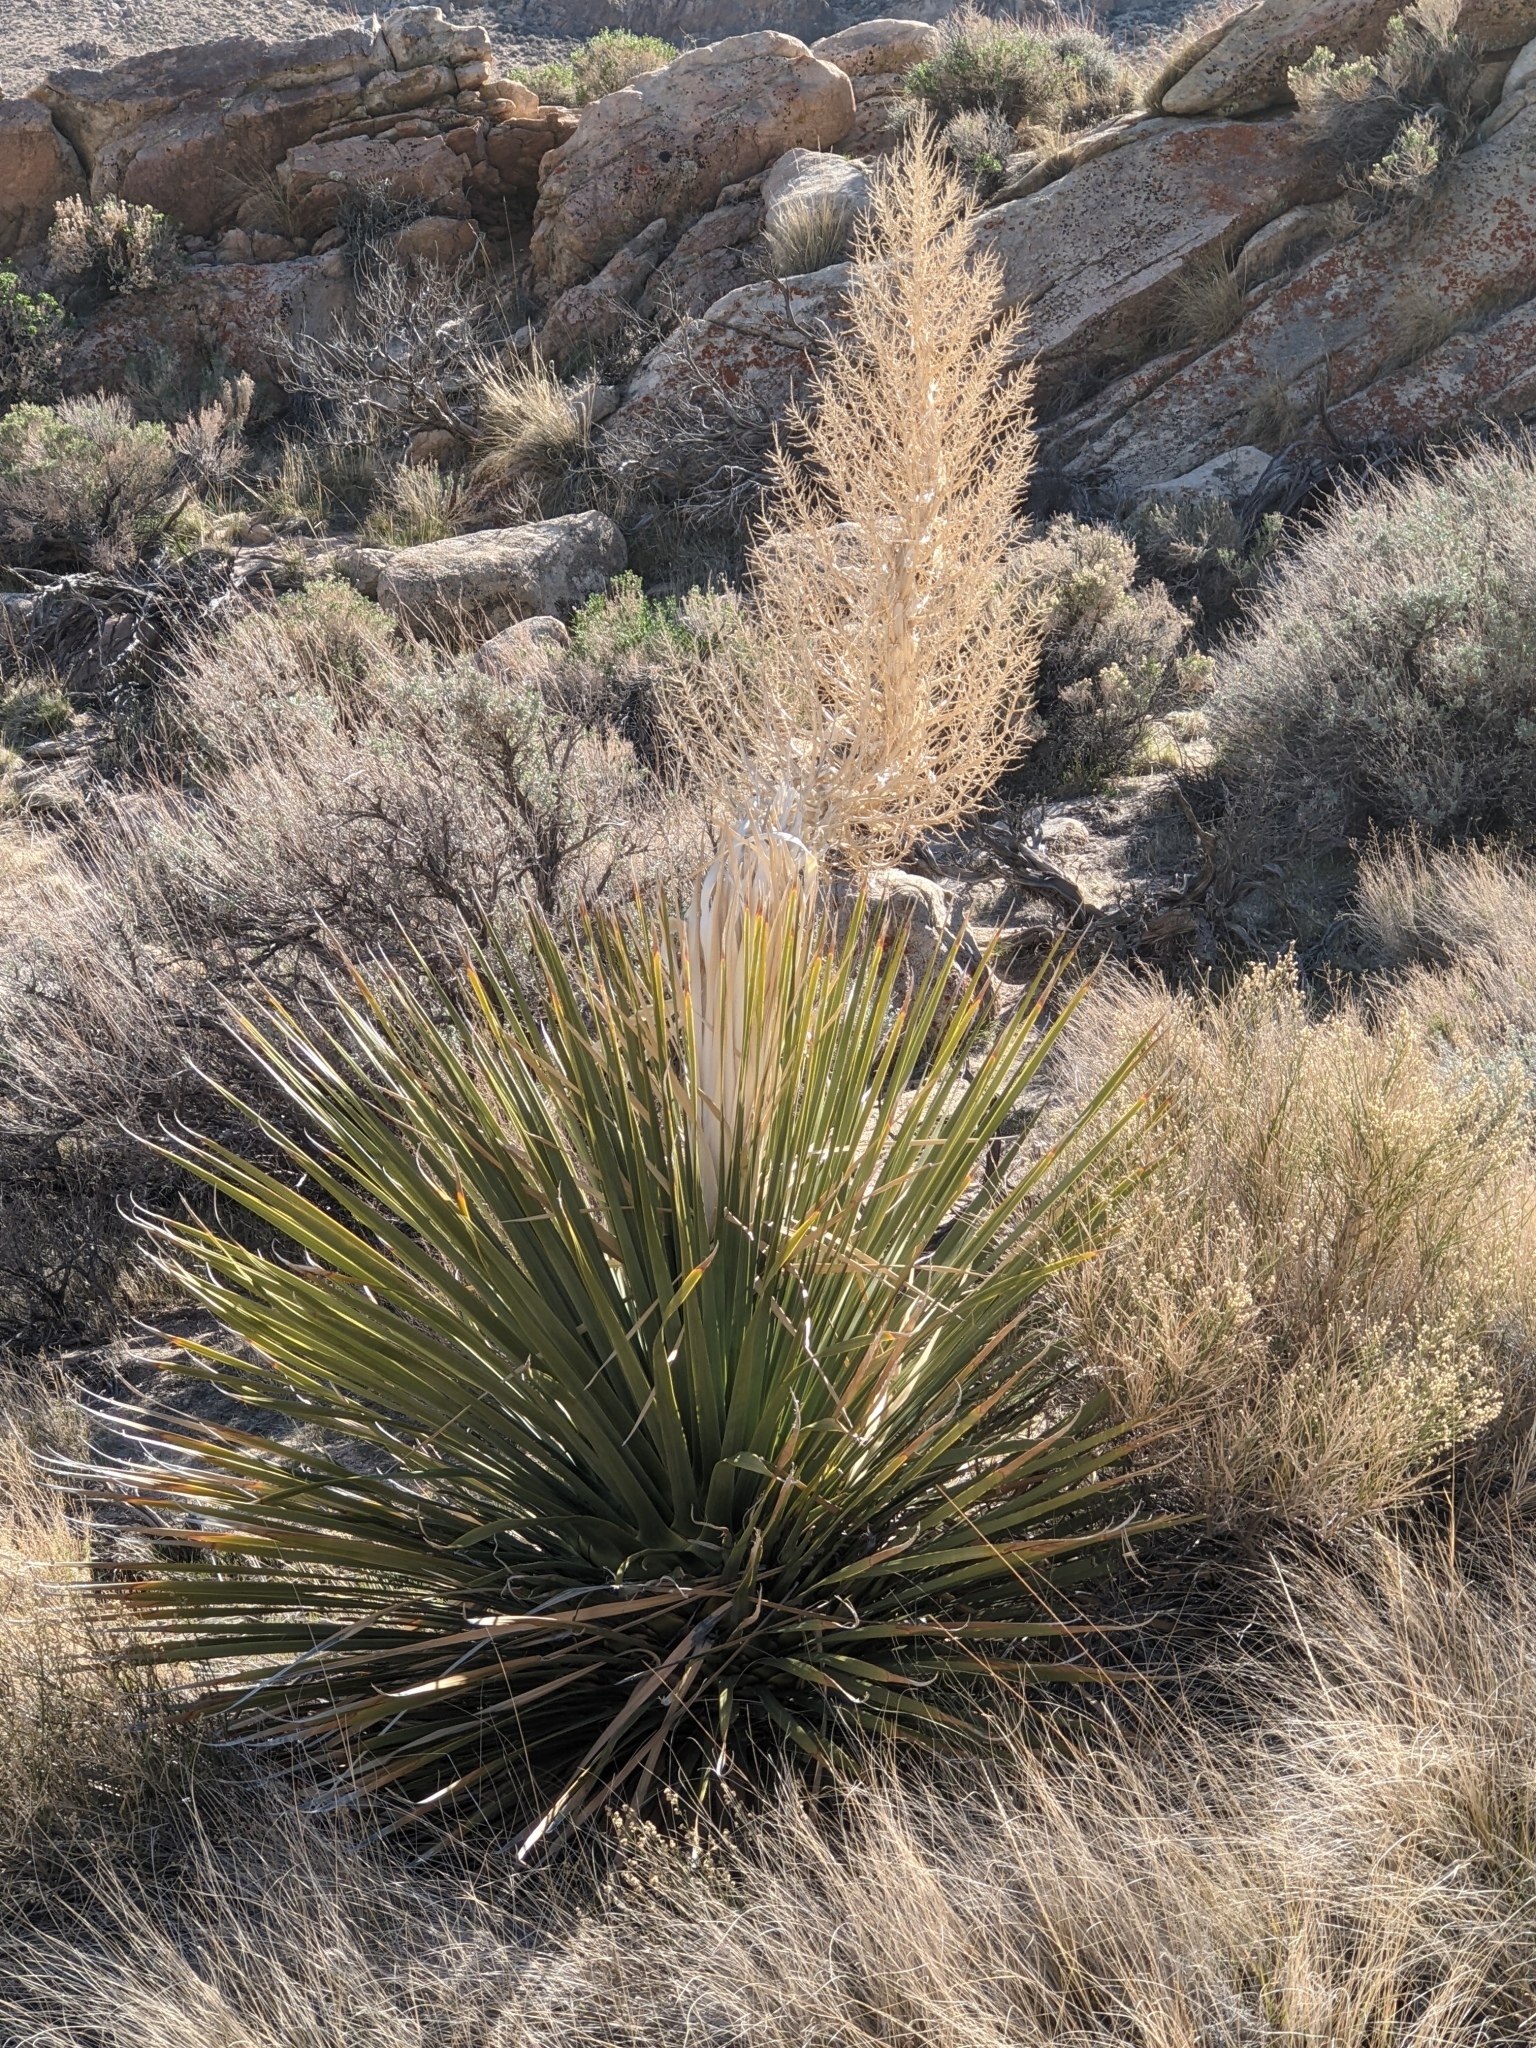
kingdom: Plantae
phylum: Tracheophyta
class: Liliopsida
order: Asparagales
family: Asparagaceae
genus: Nolina
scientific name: Nolina parryi
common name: Parry nolina
